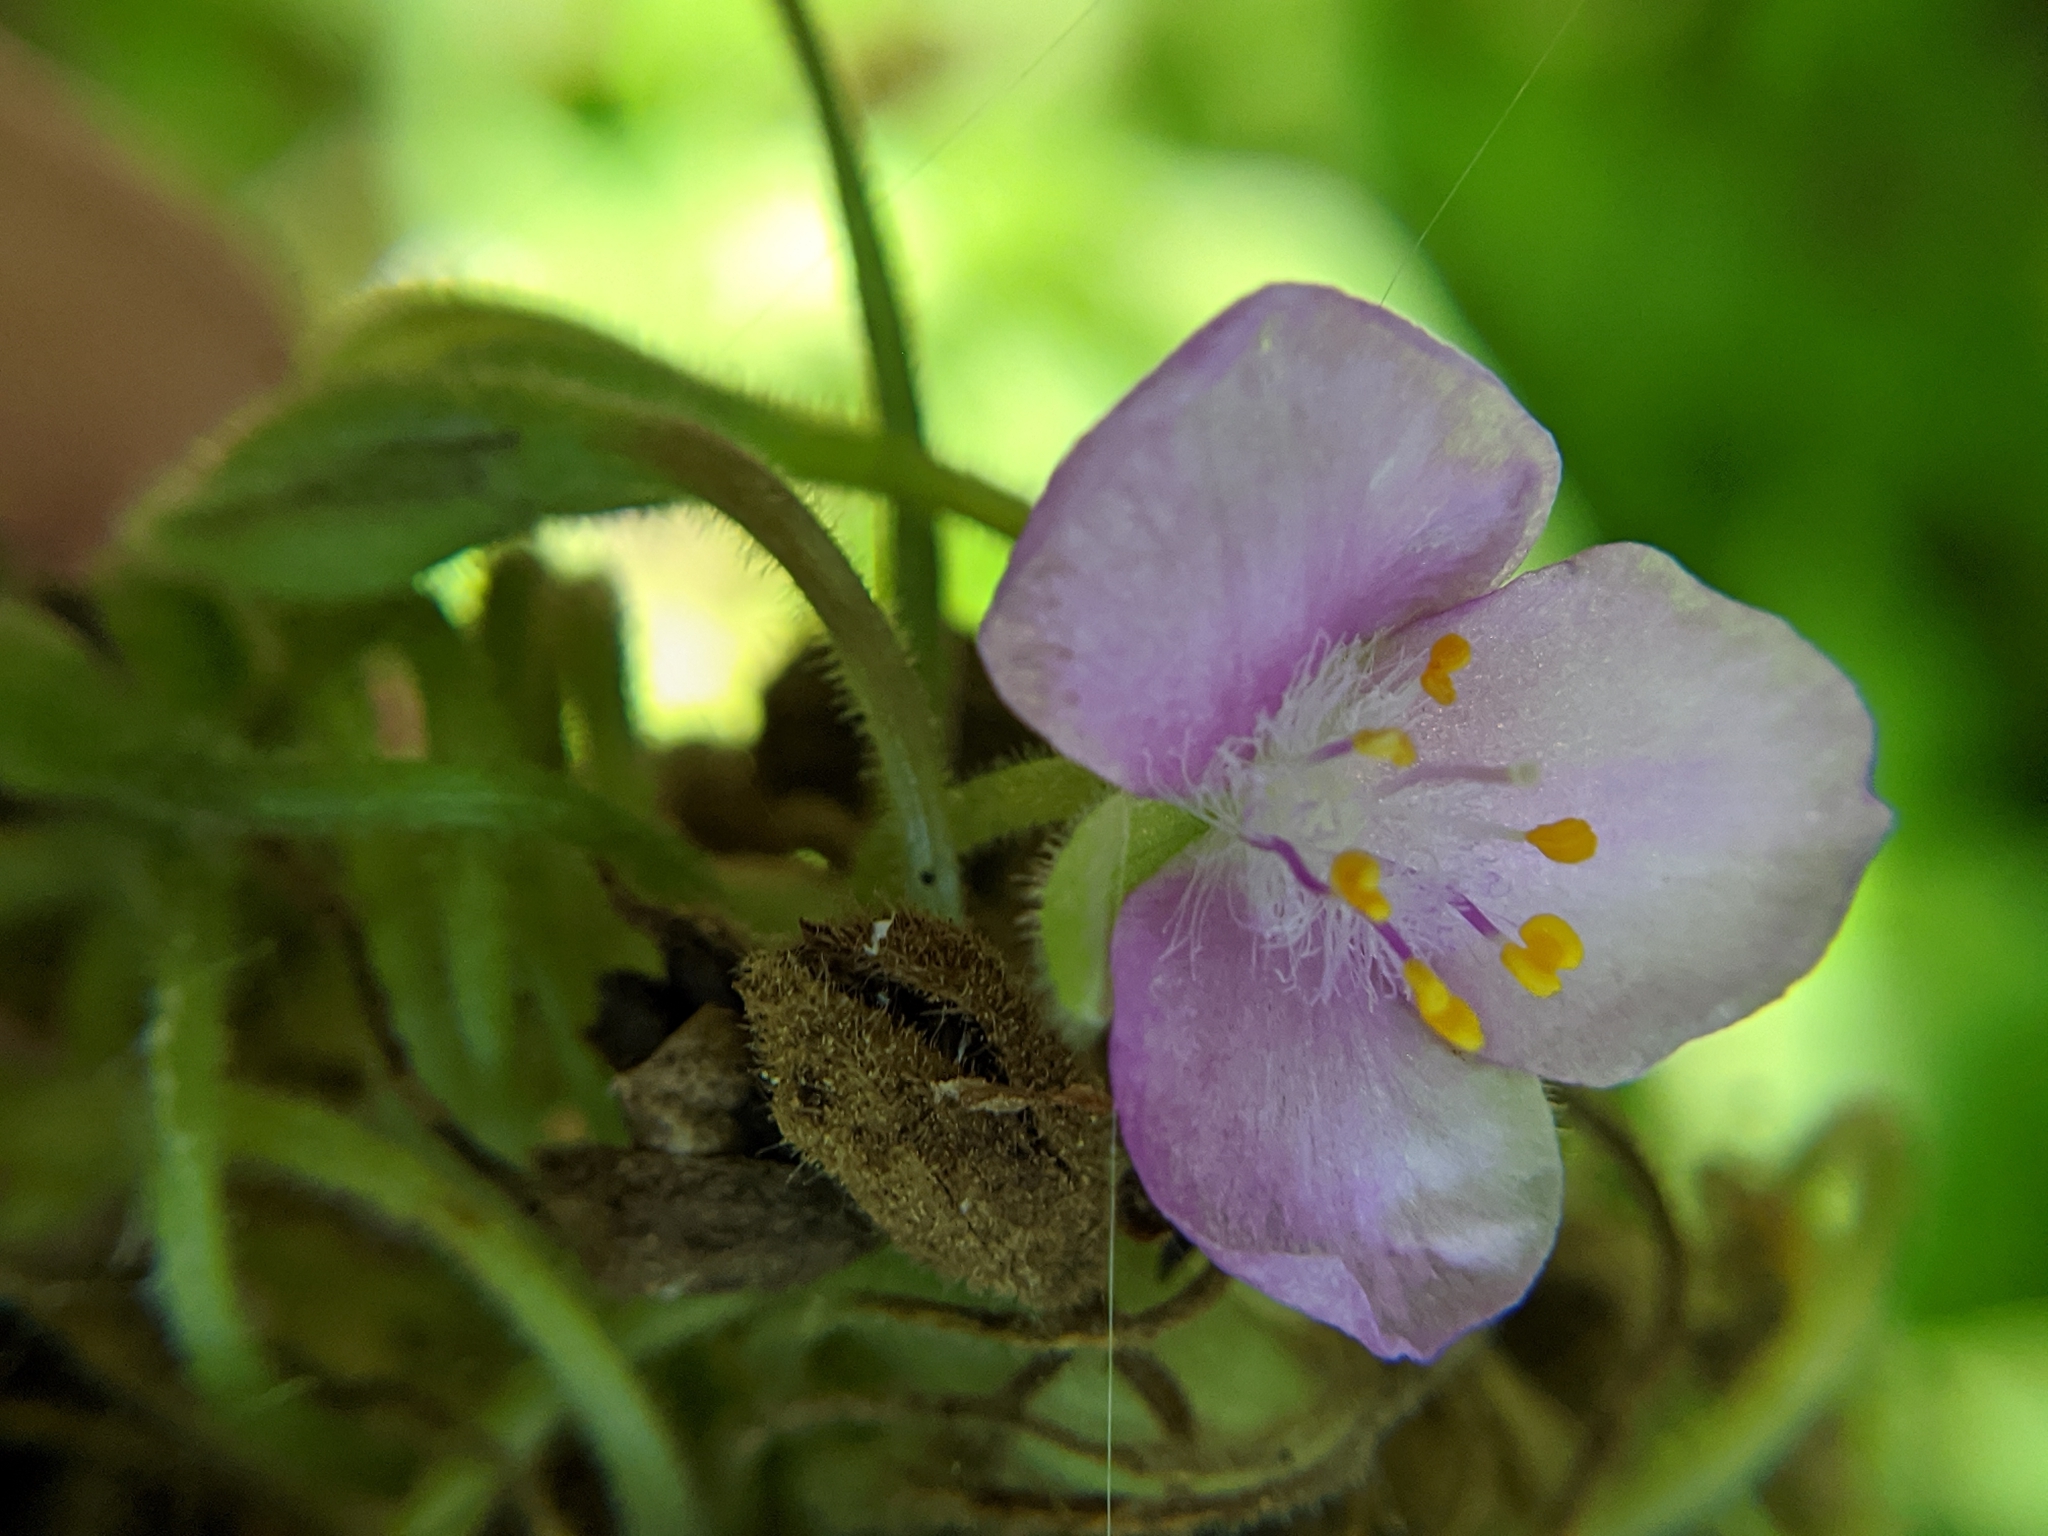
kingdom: Plantae
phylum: Tracheophyta
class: Liliopsida
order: Commelinales
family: Commelinaceae
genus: Tradescantia
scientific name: Tradescantia gigantea
